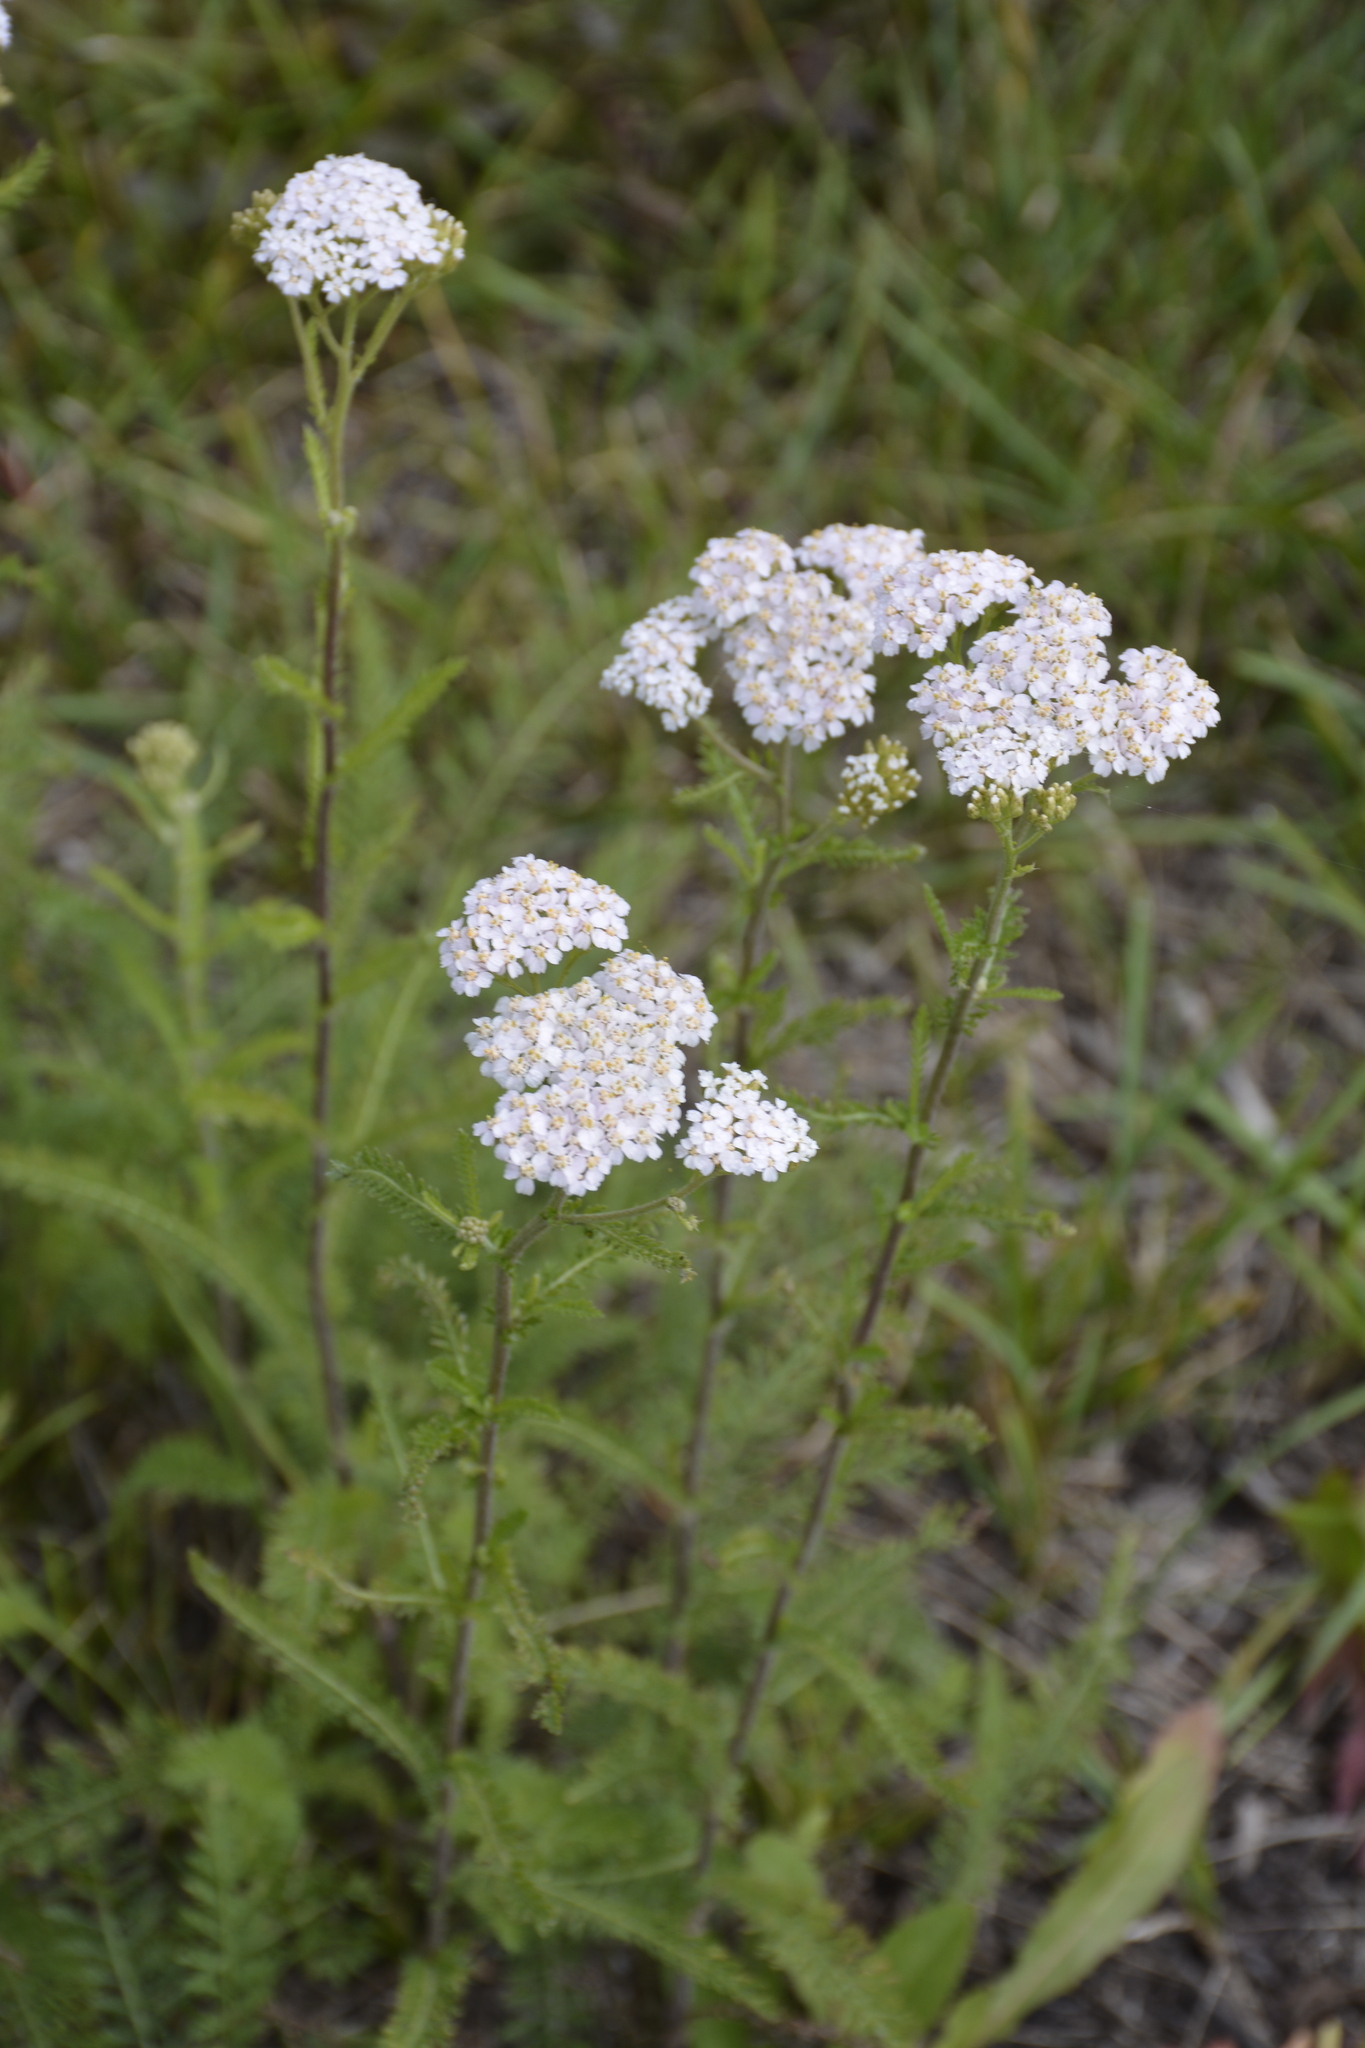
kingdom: Plantae
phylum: Tracheophyta
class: Magnoliopsida
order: Asterales
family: Asteraceae
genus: Achillea
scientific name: Achillea millefolium
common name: Yarrow
